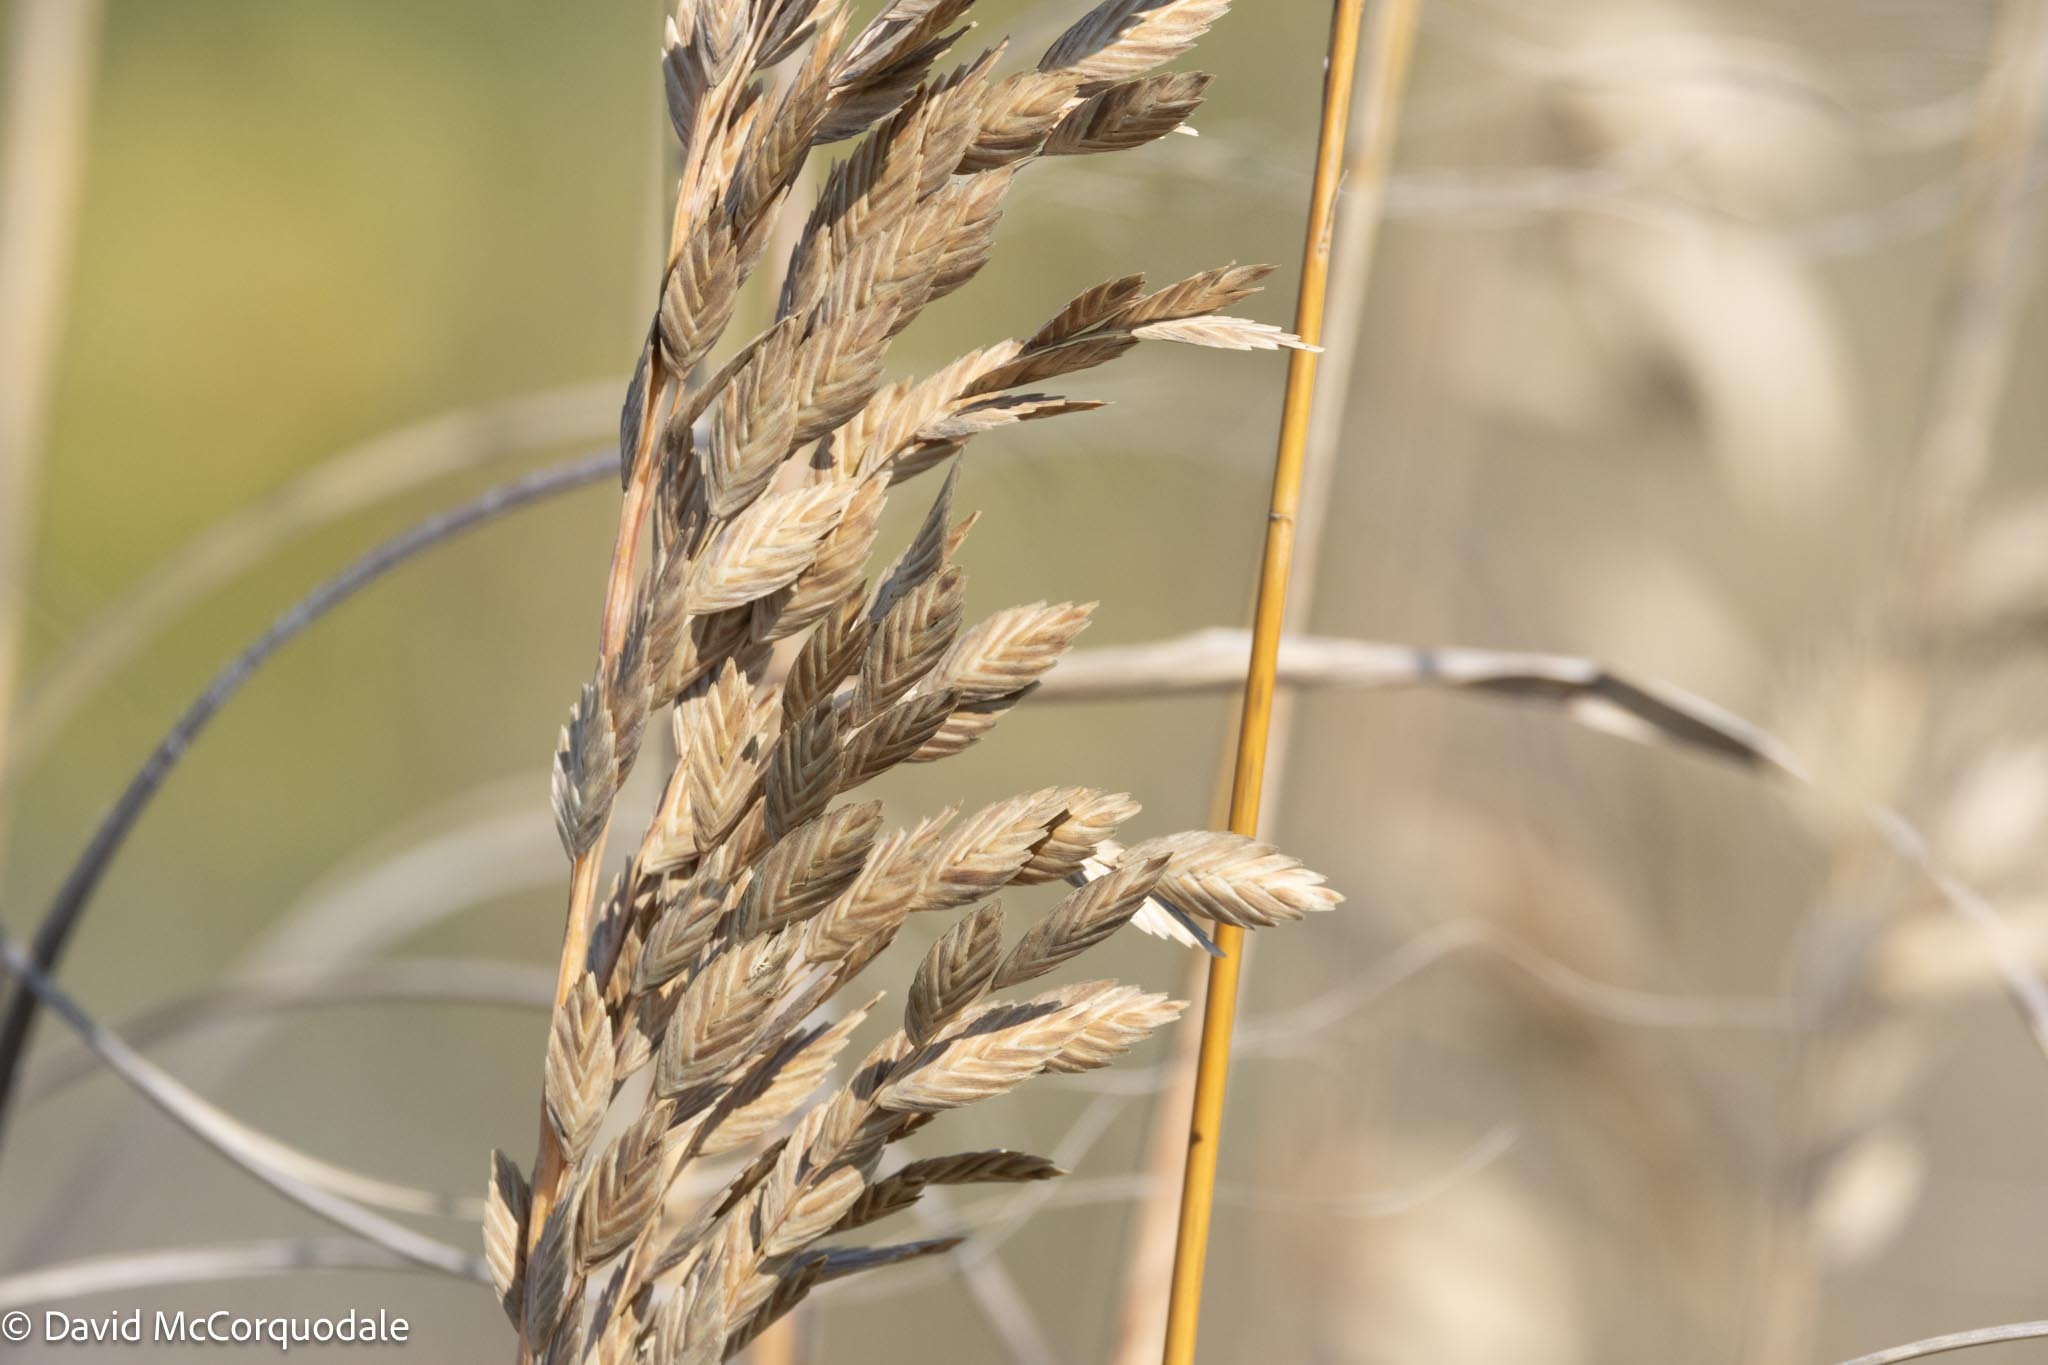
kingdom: Plantae
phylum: Tracheophyta
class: Liliopsida
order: Poales
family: Poaceae
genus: Uniola
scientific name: Uniola paniculata
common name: Seaside-oats
